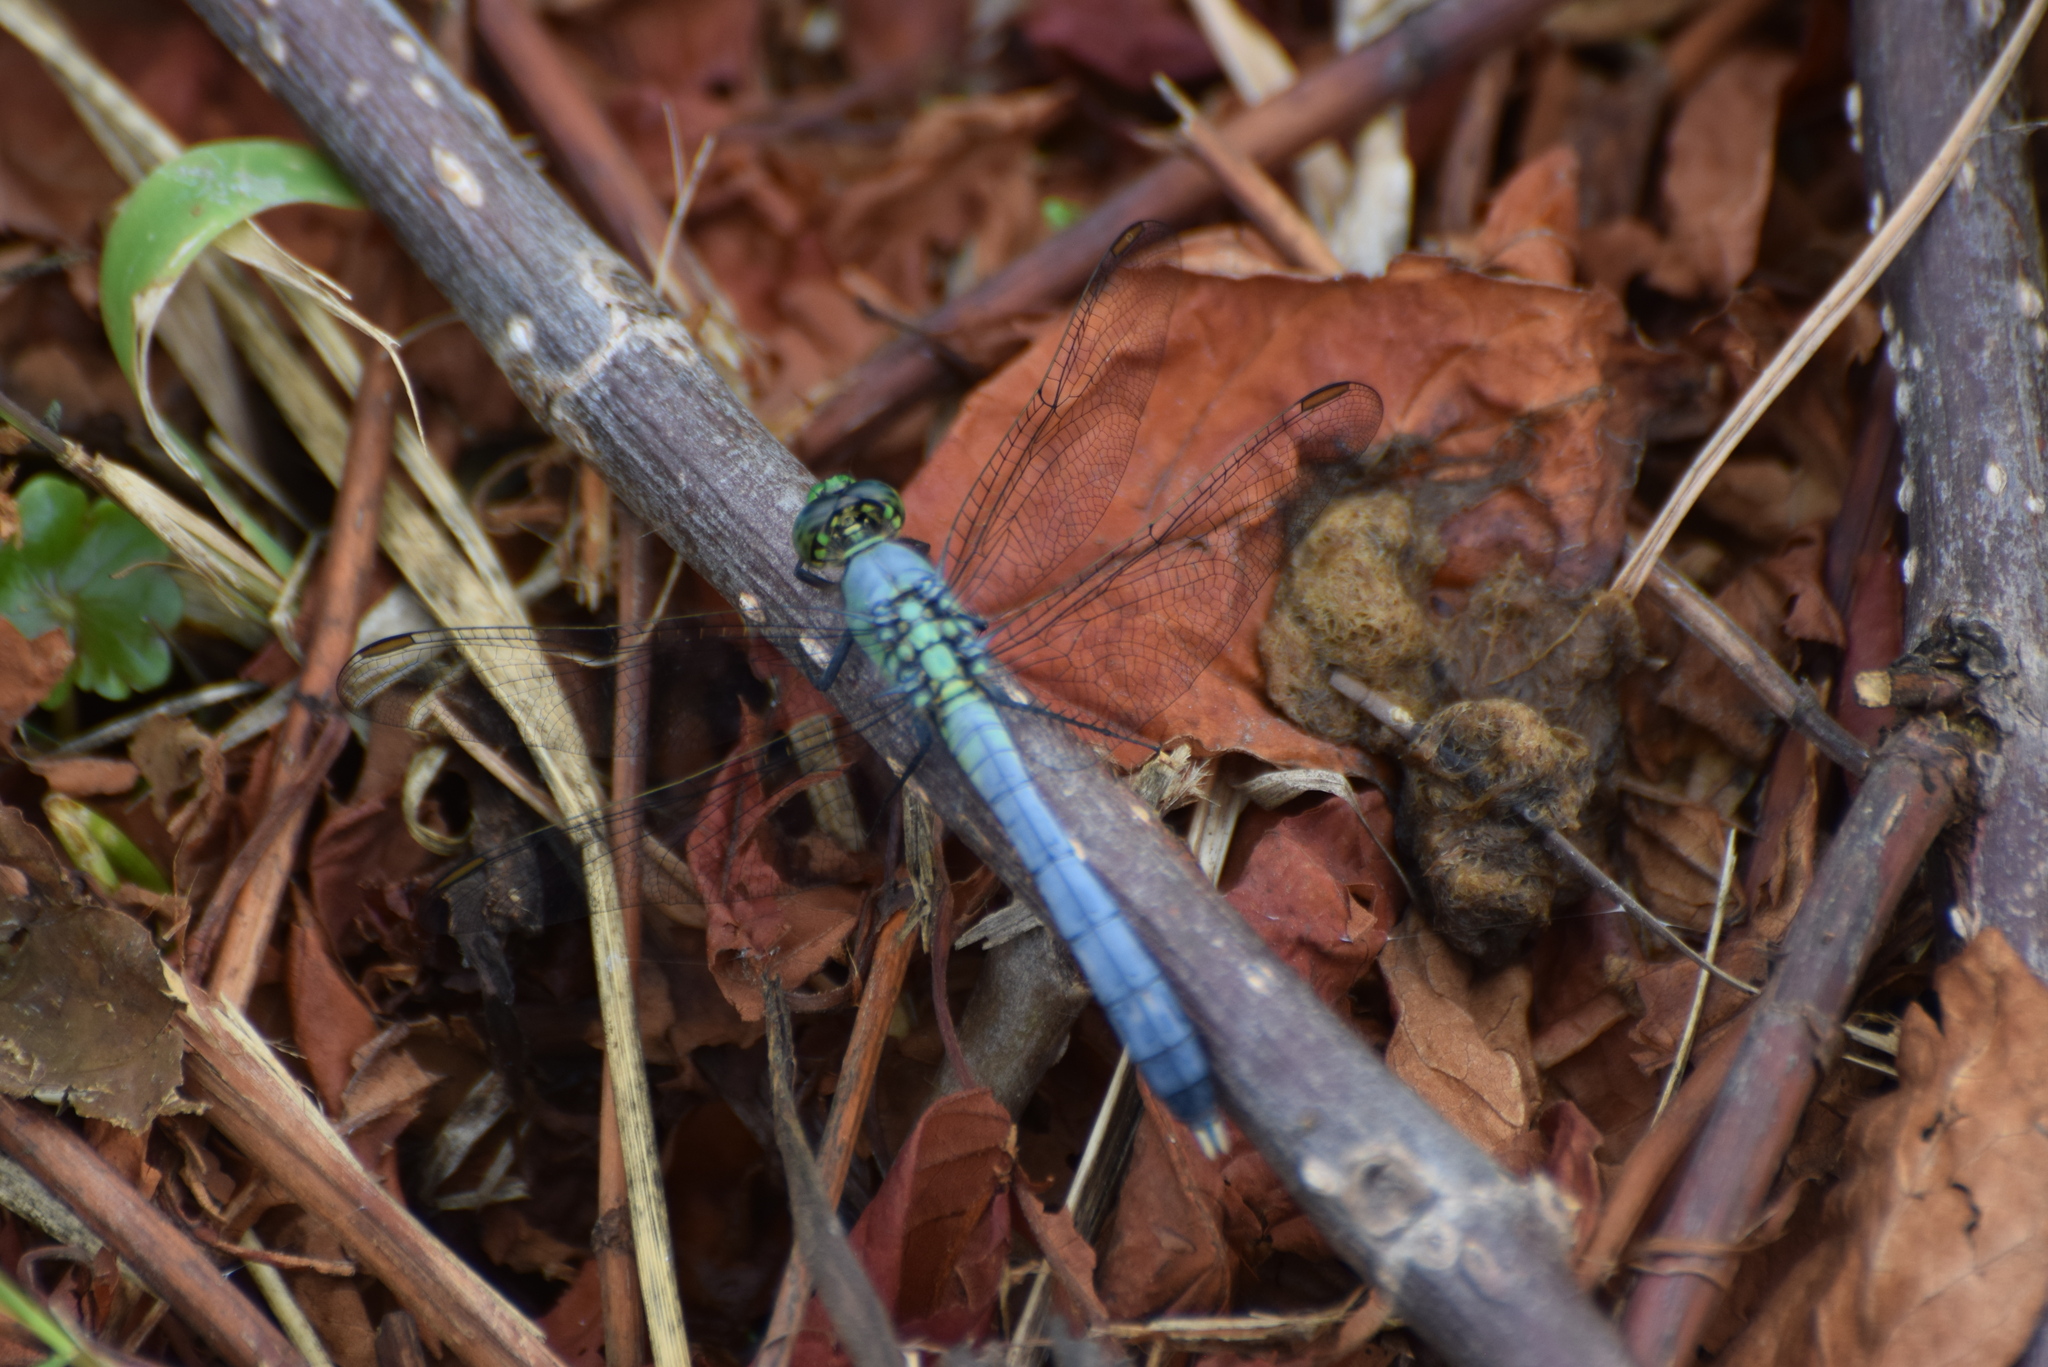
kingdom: Animalia
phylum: Arthropoda
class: Insecta
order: Odonata
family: Libellulidae
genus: Erythemis
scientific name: Erythemis simplicicollis
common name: Eastern pondhawk
